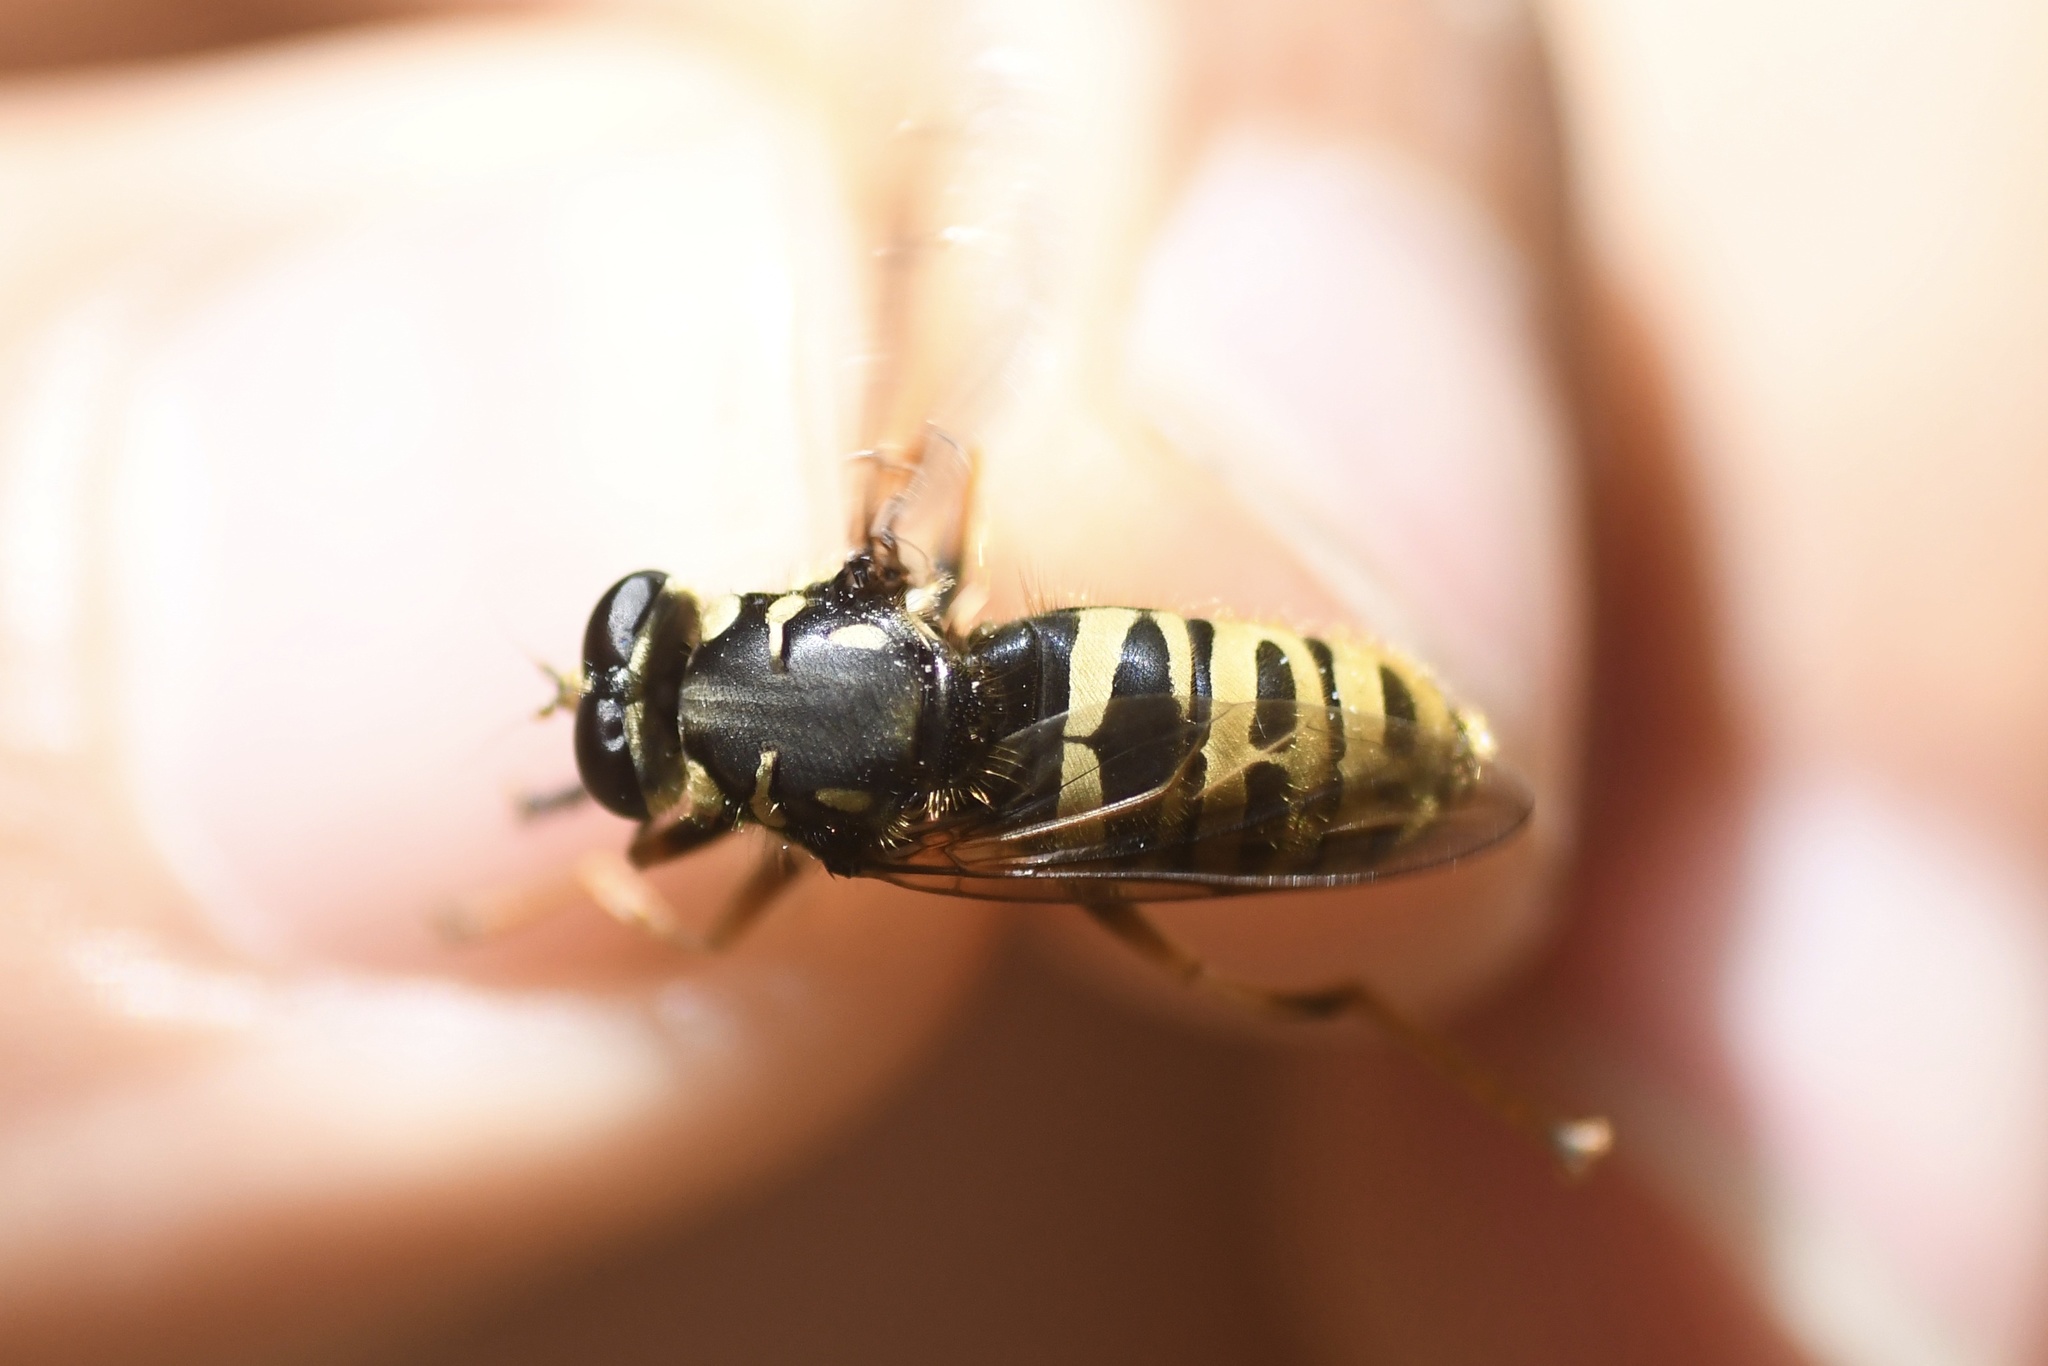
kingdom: Animalia
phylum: Arthropoda
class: Insecta
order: Diptera
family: Syrphidae
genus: Temnostoma
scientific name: Temnostoma excentricum
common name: Black-spotted falsehorn
